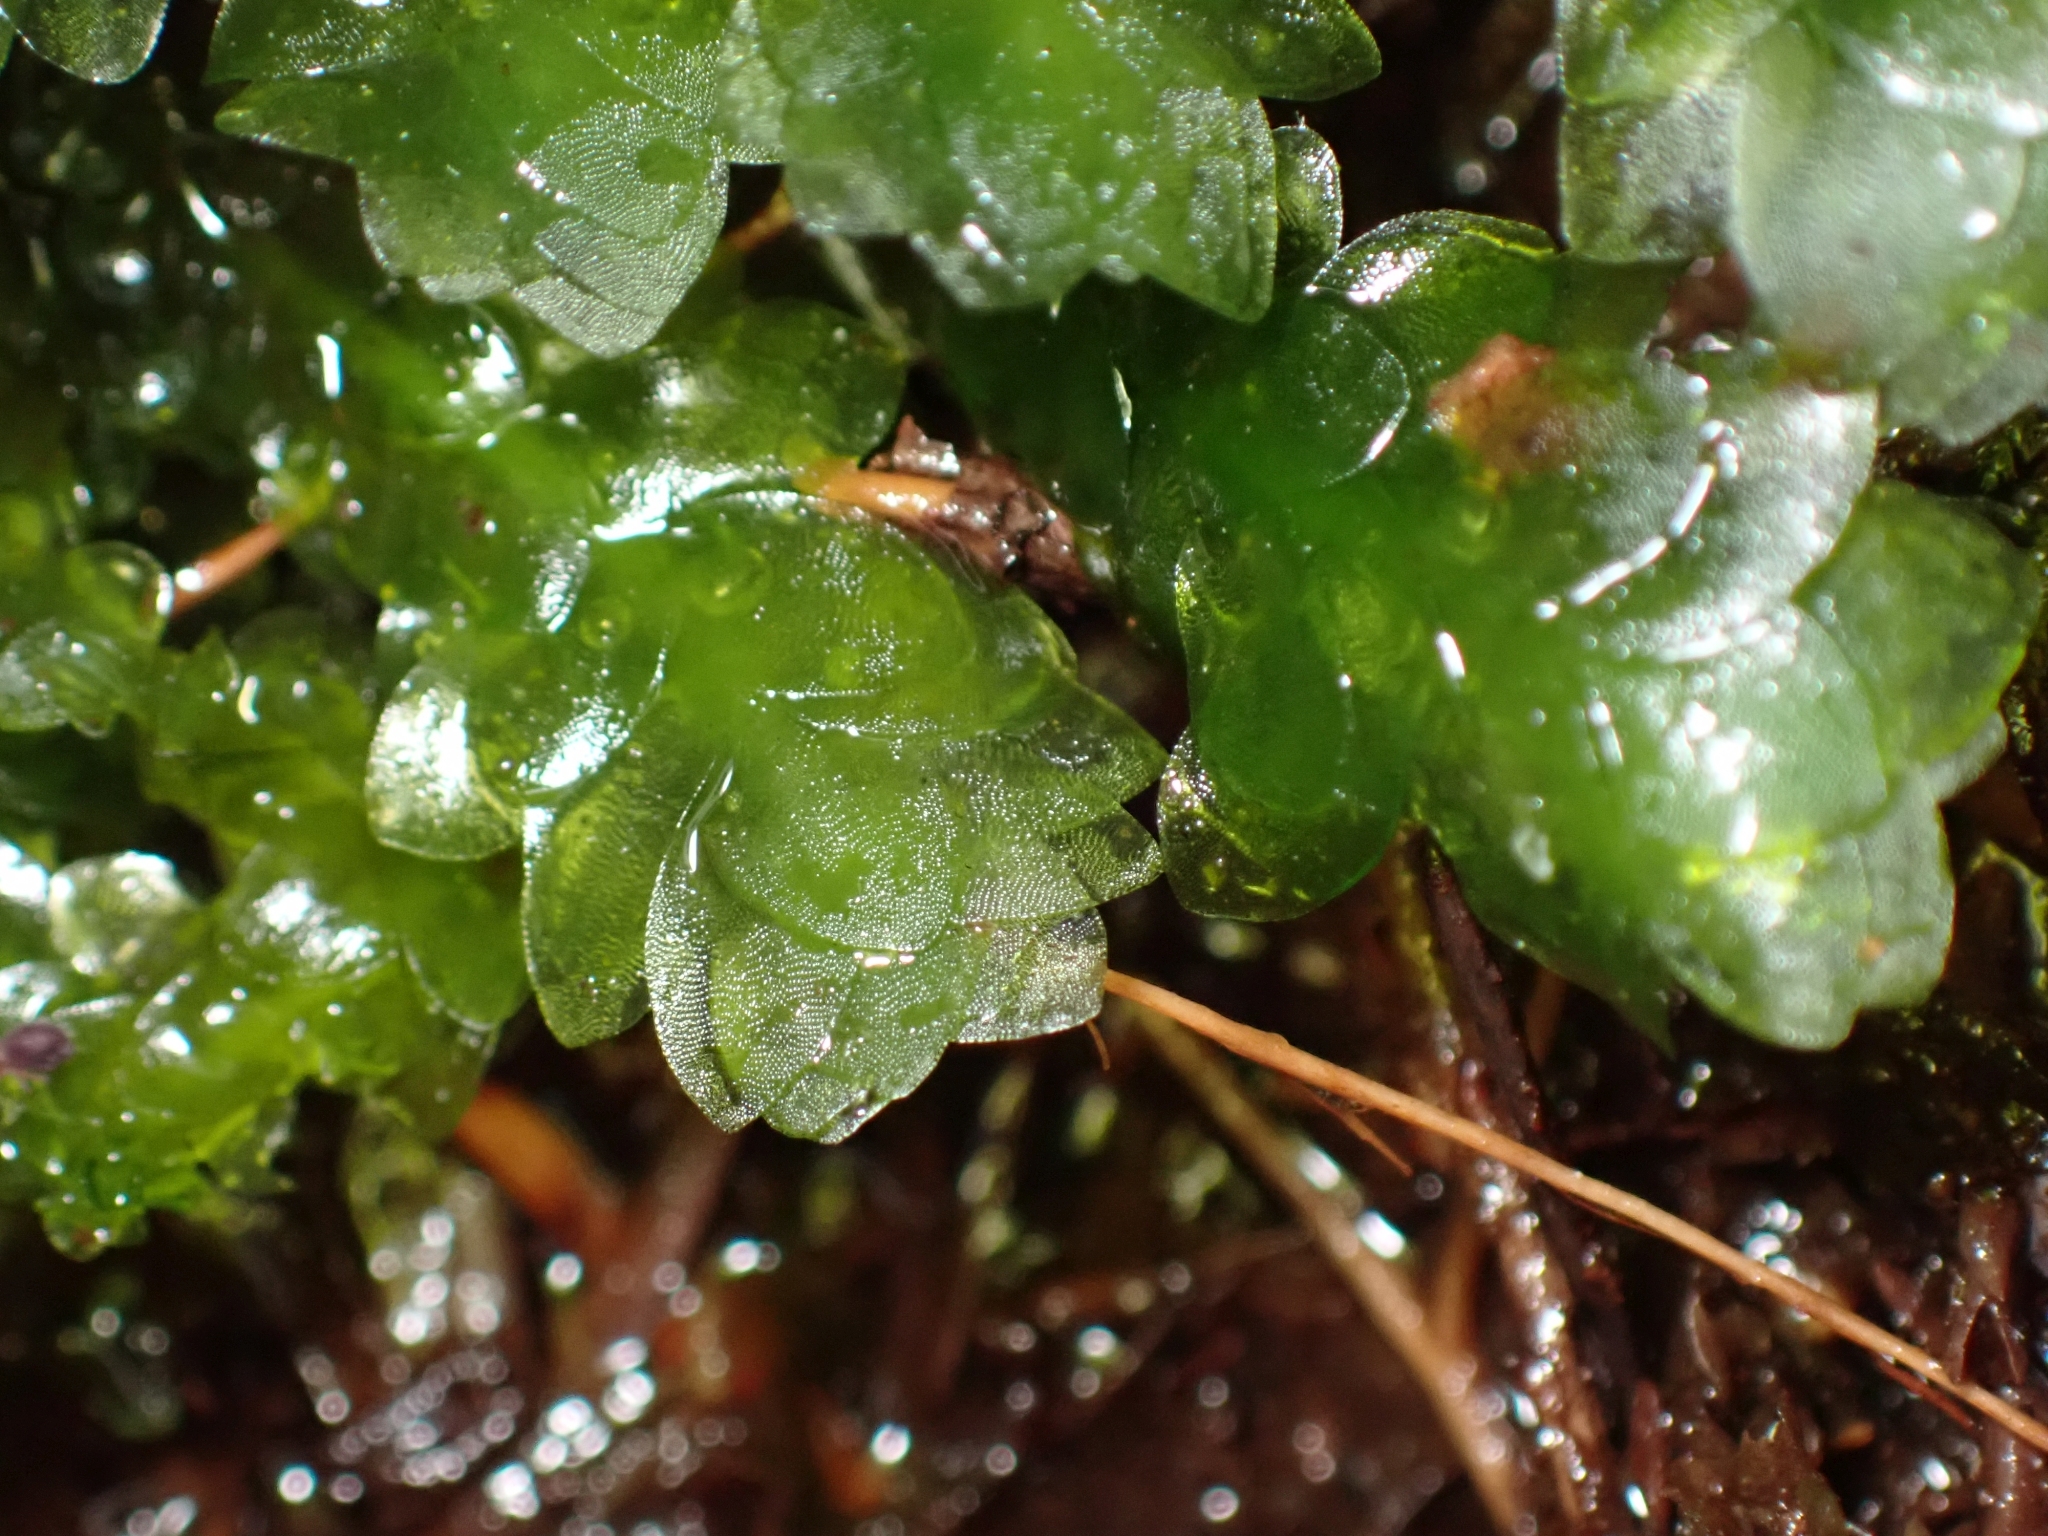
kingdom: Plantae
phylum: Bryophyta
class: Bryopsida
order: Hookeriales
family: Hookeriaceae
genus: Hookeria
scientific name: Hookeria lucens
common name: Shining hookeria
